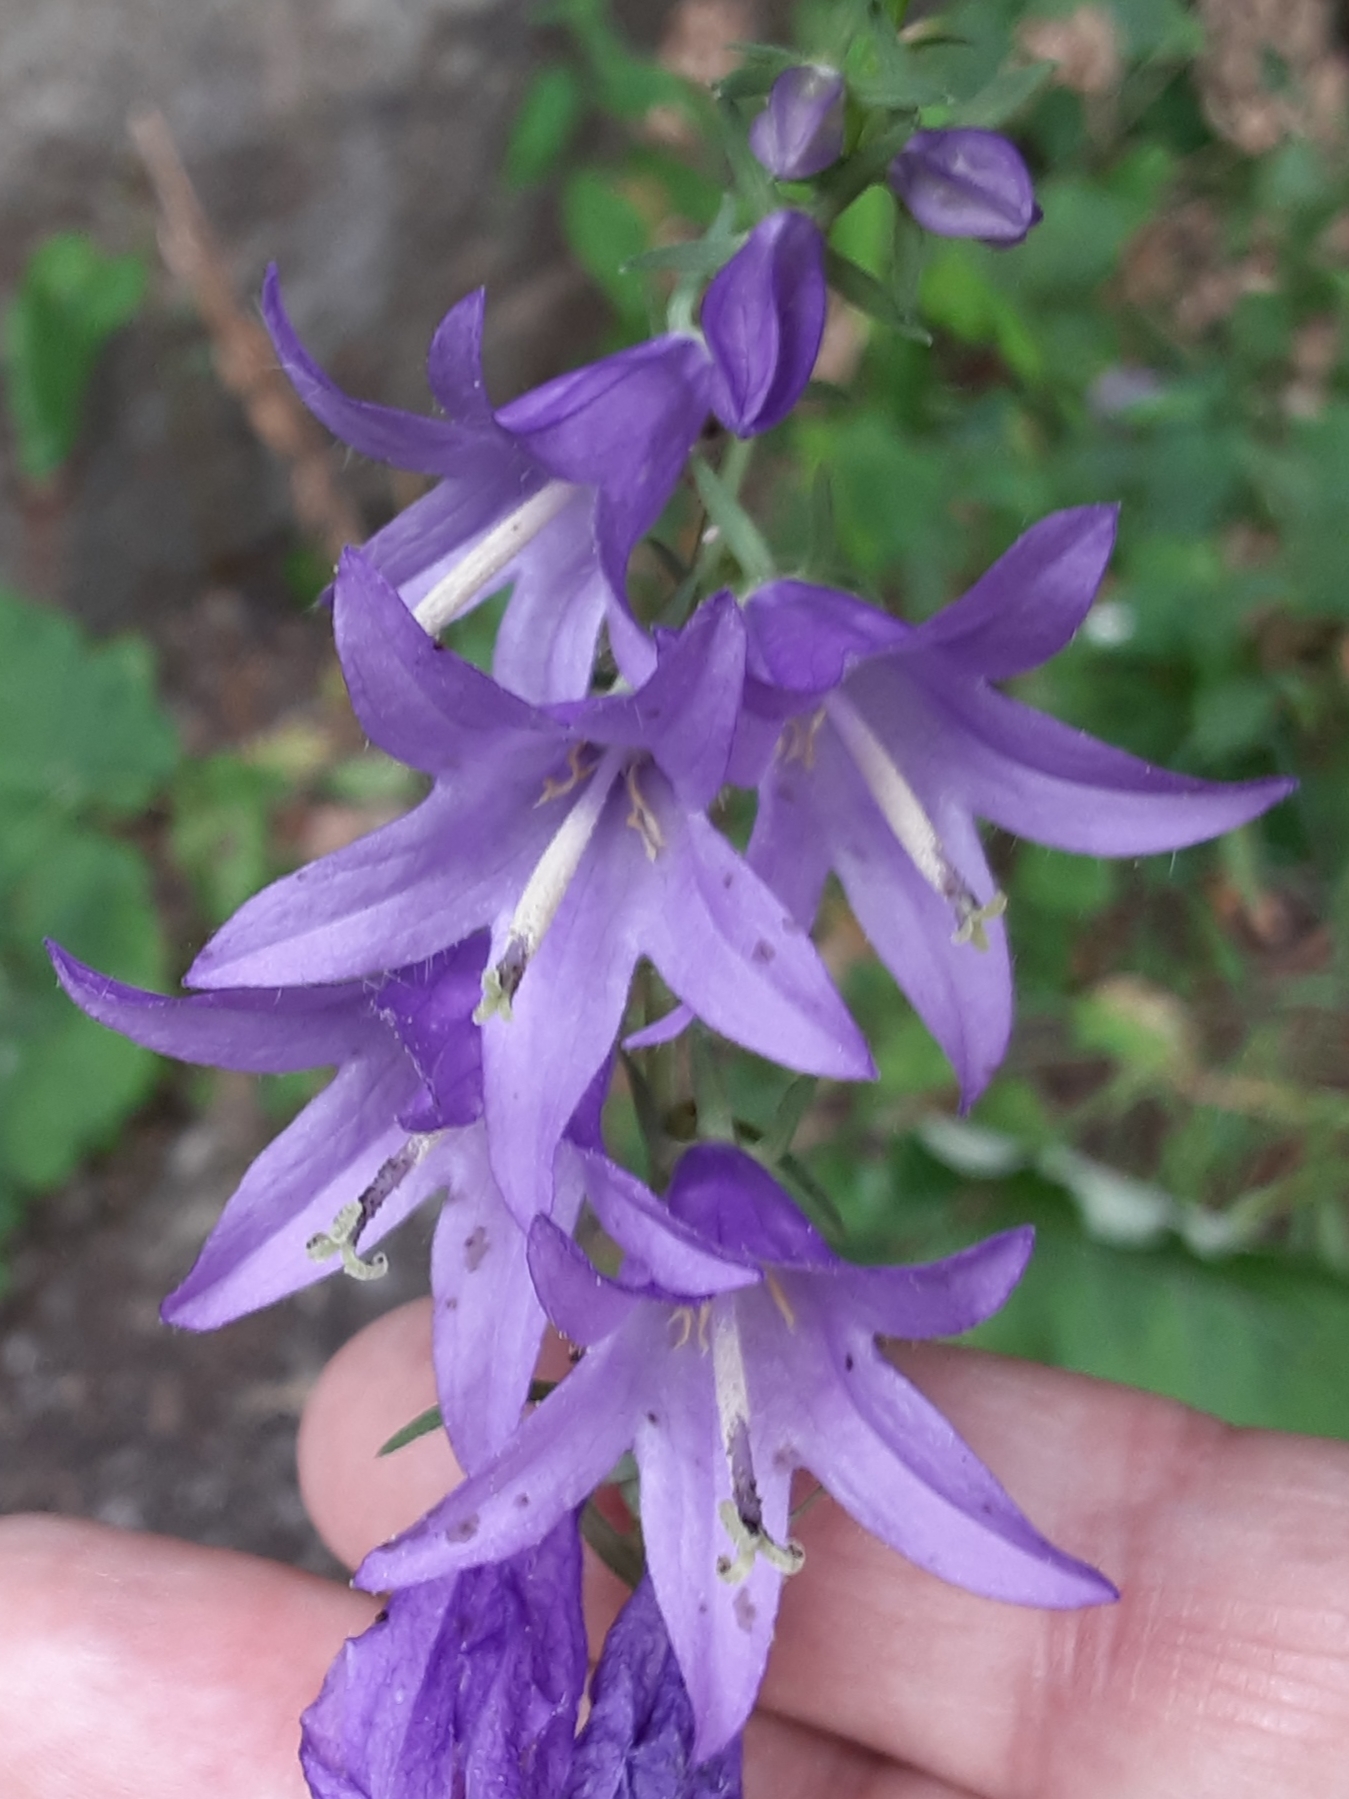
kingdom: Plantae
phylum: Tracheophyta
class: Magnoliopsida
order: Asterales
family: Campanulaceae
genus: Campanula
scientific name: Campanula rapunculoides
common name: Creeping bellflower
